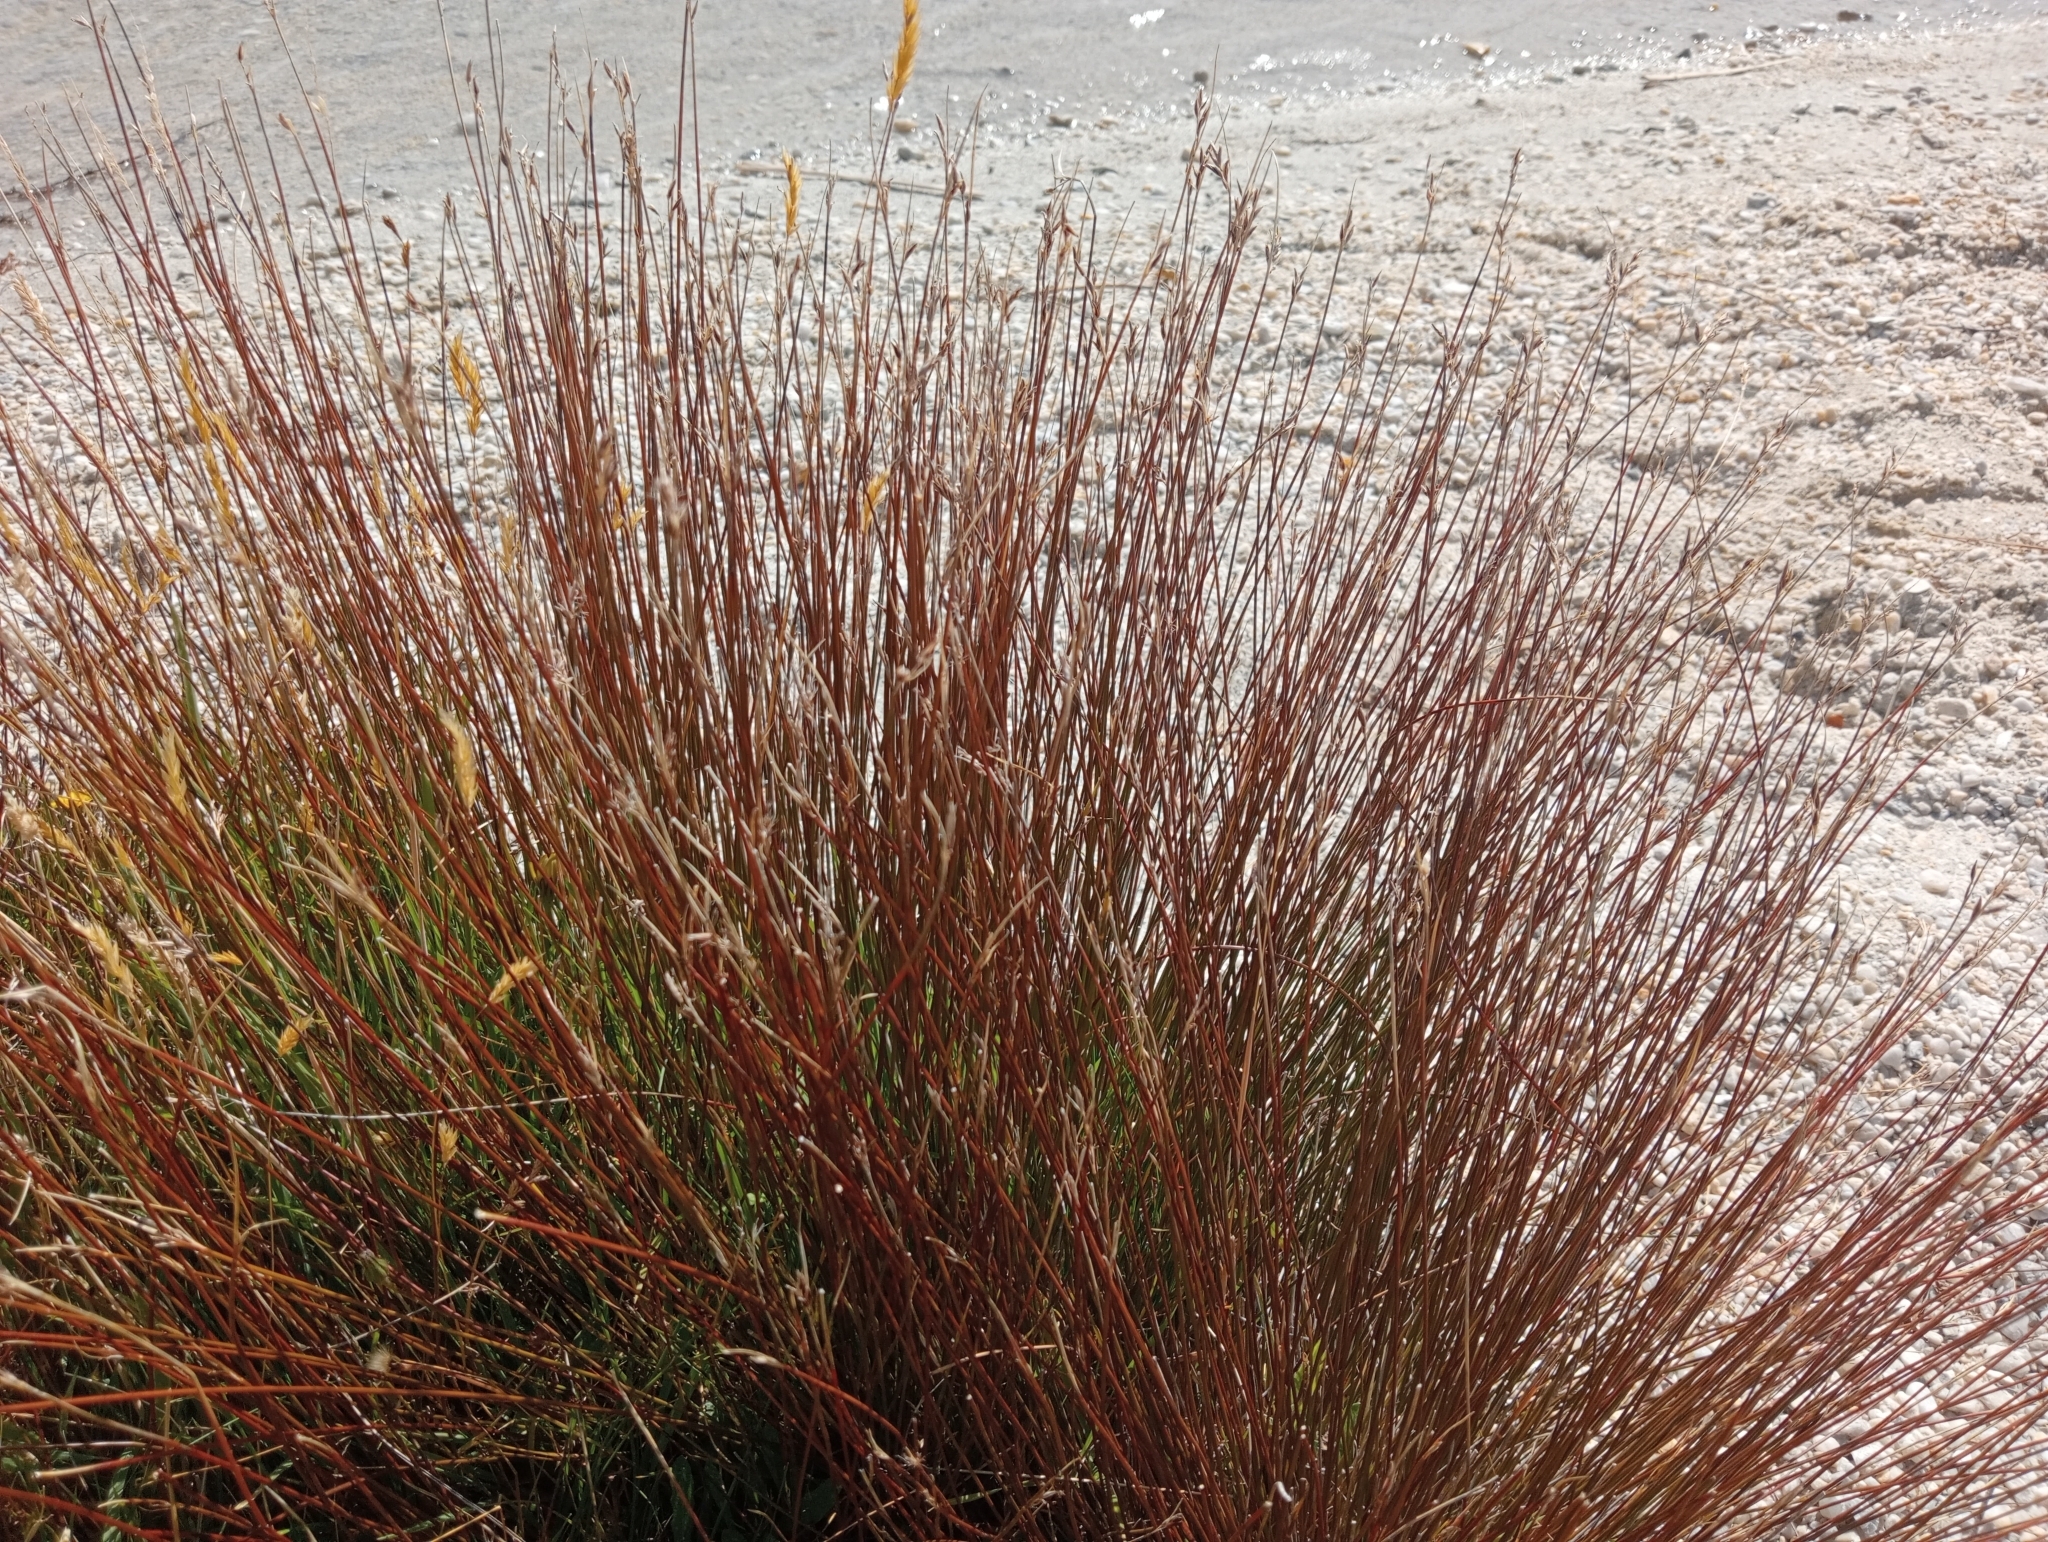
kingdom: Plantae
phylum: Tracheophyta
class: Liliopsida
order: Poales
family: Cyperaceae
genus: Schoenus
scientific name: Schoenus pauciflorus
